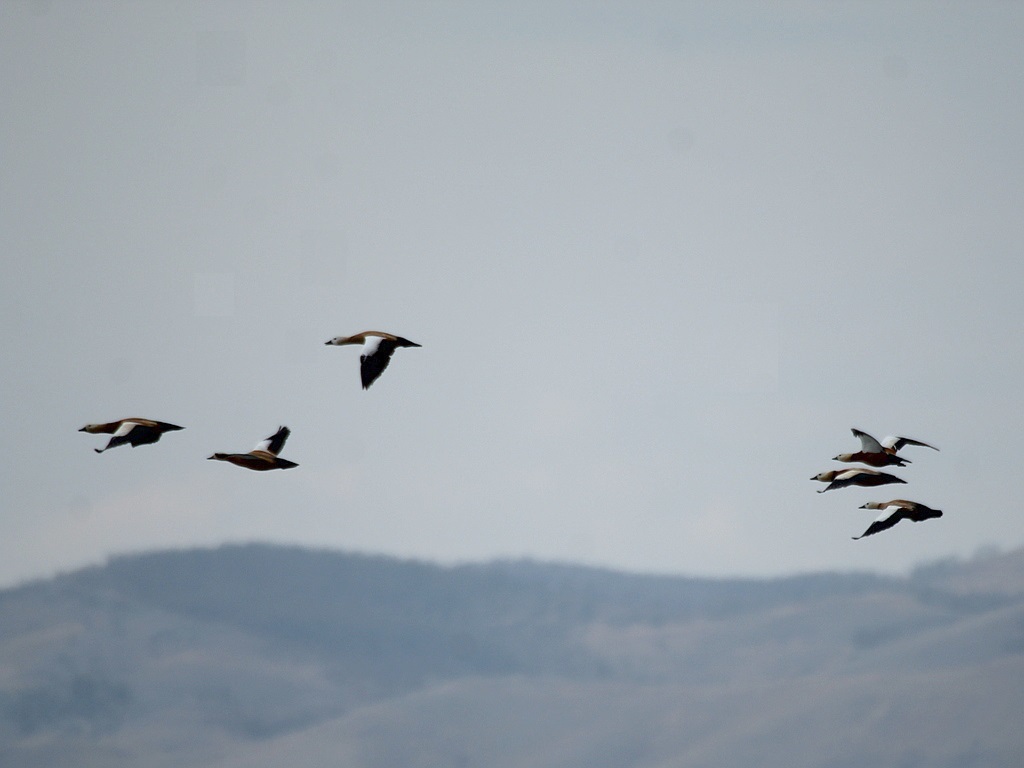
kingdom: Animalia
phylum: Chordata
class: Aves
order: Anseriformes
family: Anatidae
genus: Tadorna
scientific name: Tadorna ferruginea
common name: Ruddy shelduck
